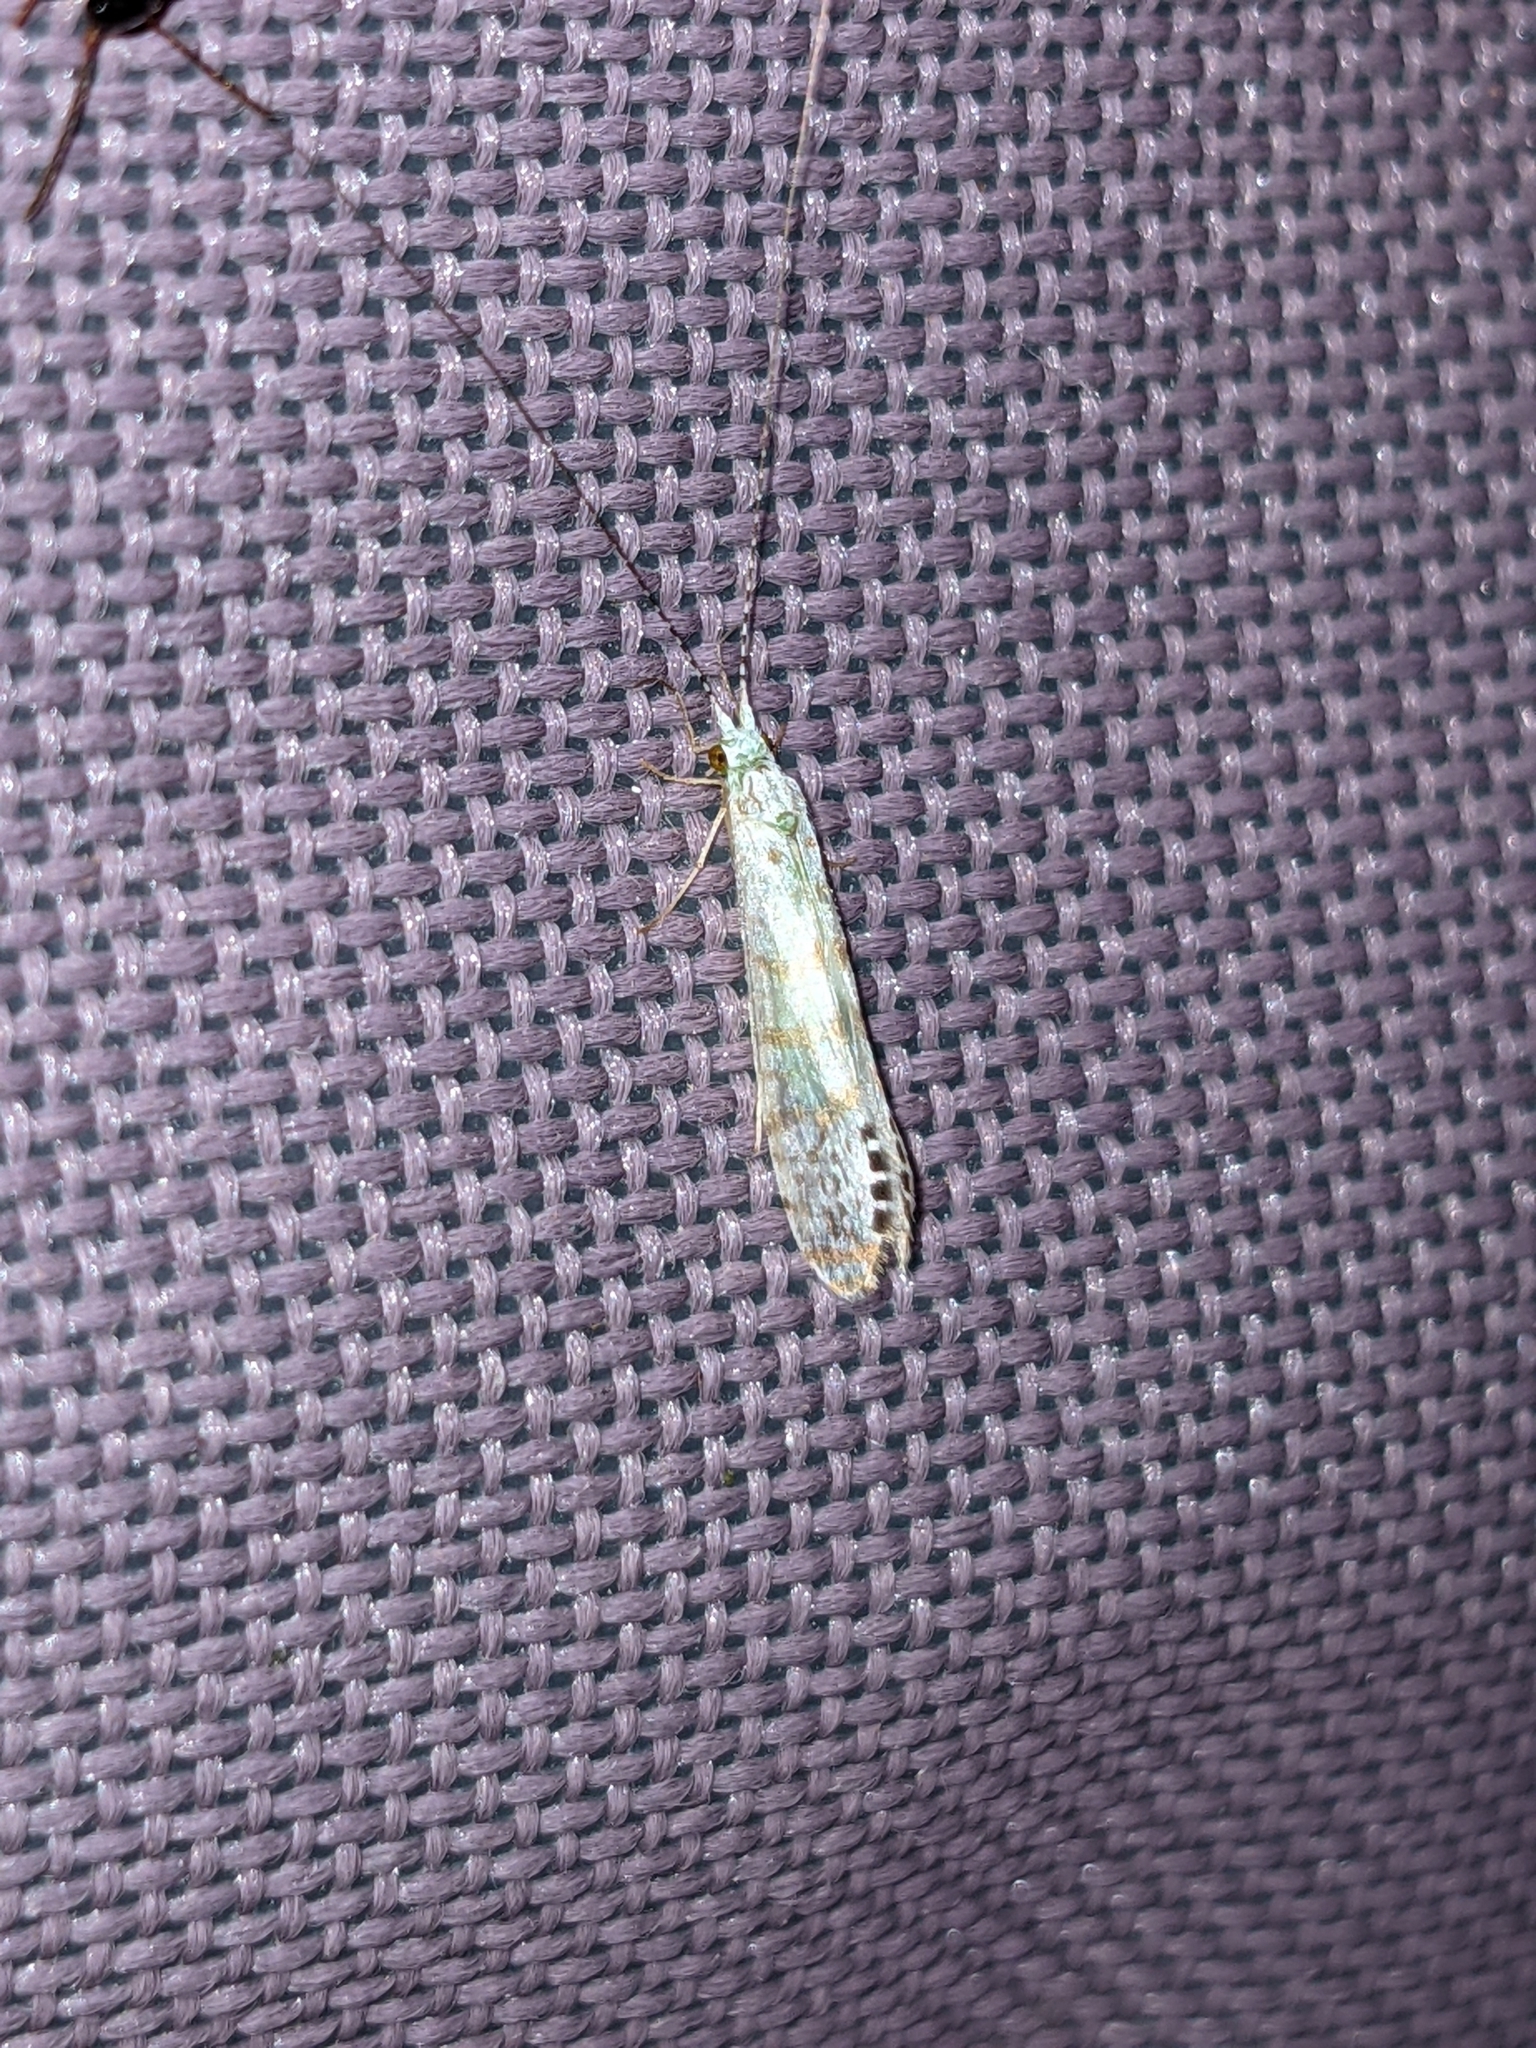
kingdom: Animalia
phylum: Arthropoda
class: Insecta
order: Trichoptera
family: Leptoceridae
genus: Nectopsyche
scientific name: Nectopsyche exquisita
